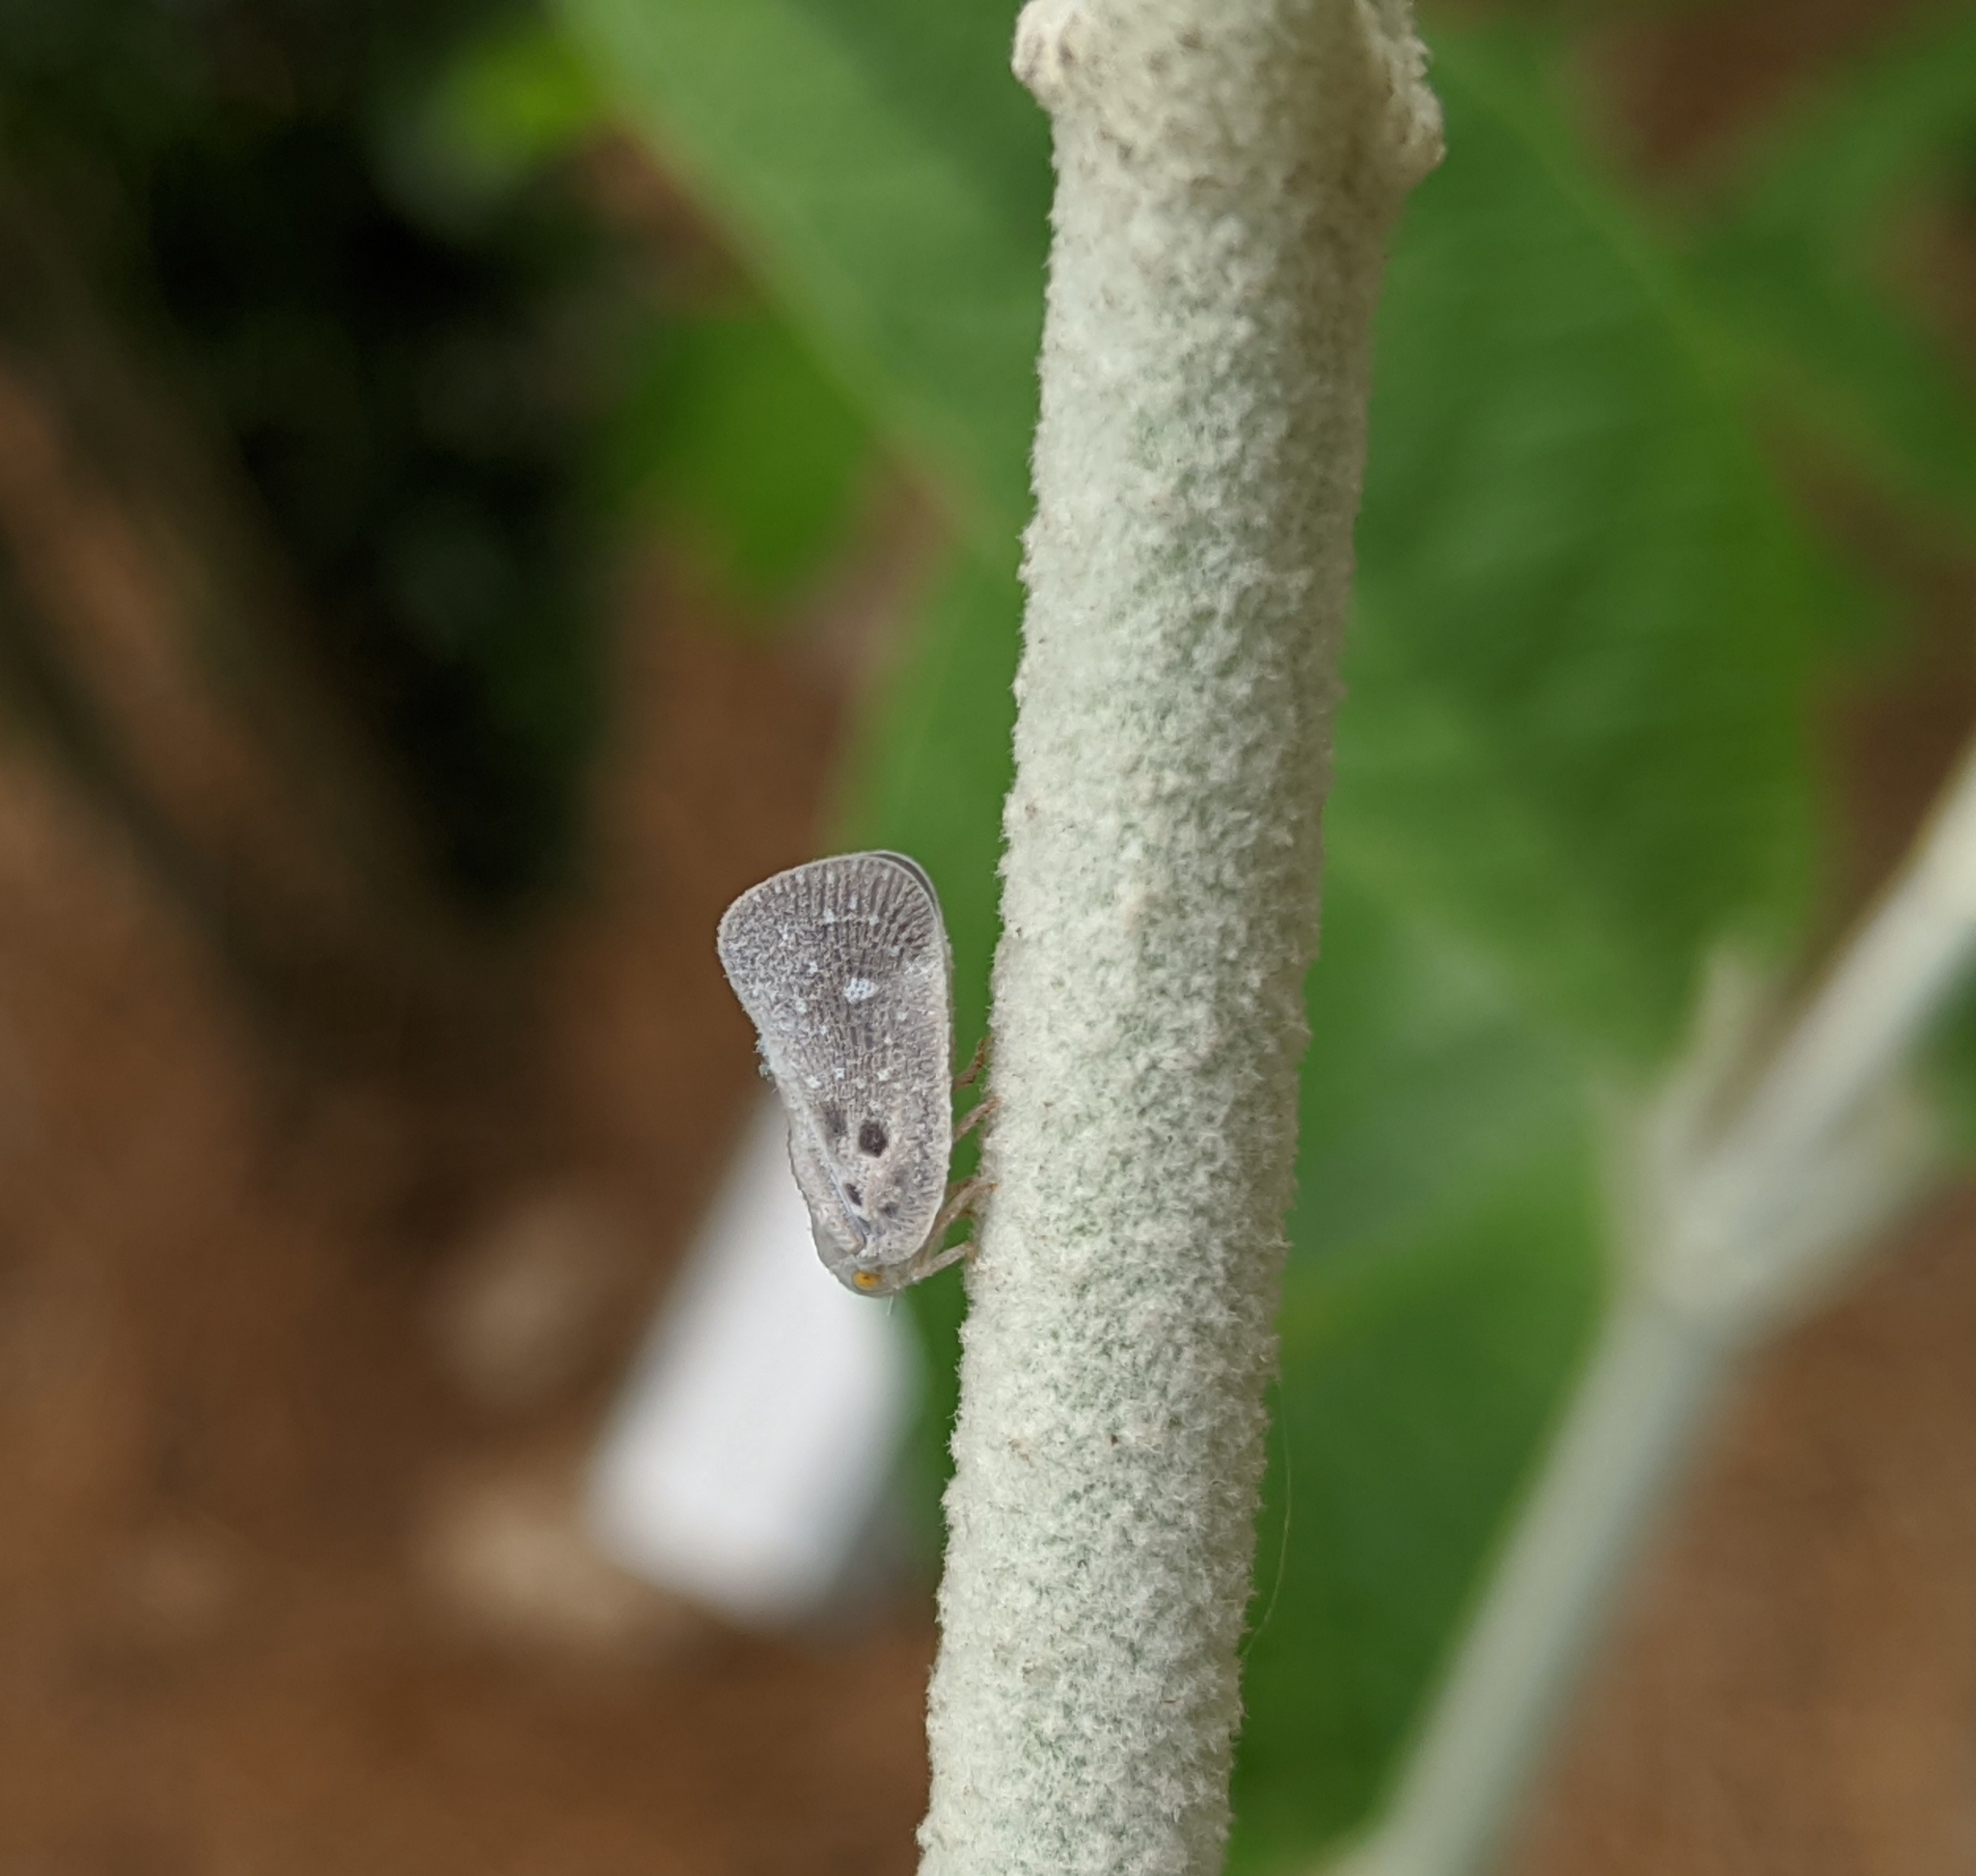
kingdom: Animalia
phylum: Arthropoda
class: Insecta
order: Hemiptera
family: Flatidae
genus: Metcalfa
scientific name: Metcalfa pruinosa
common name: Citrus flatid planthopper
